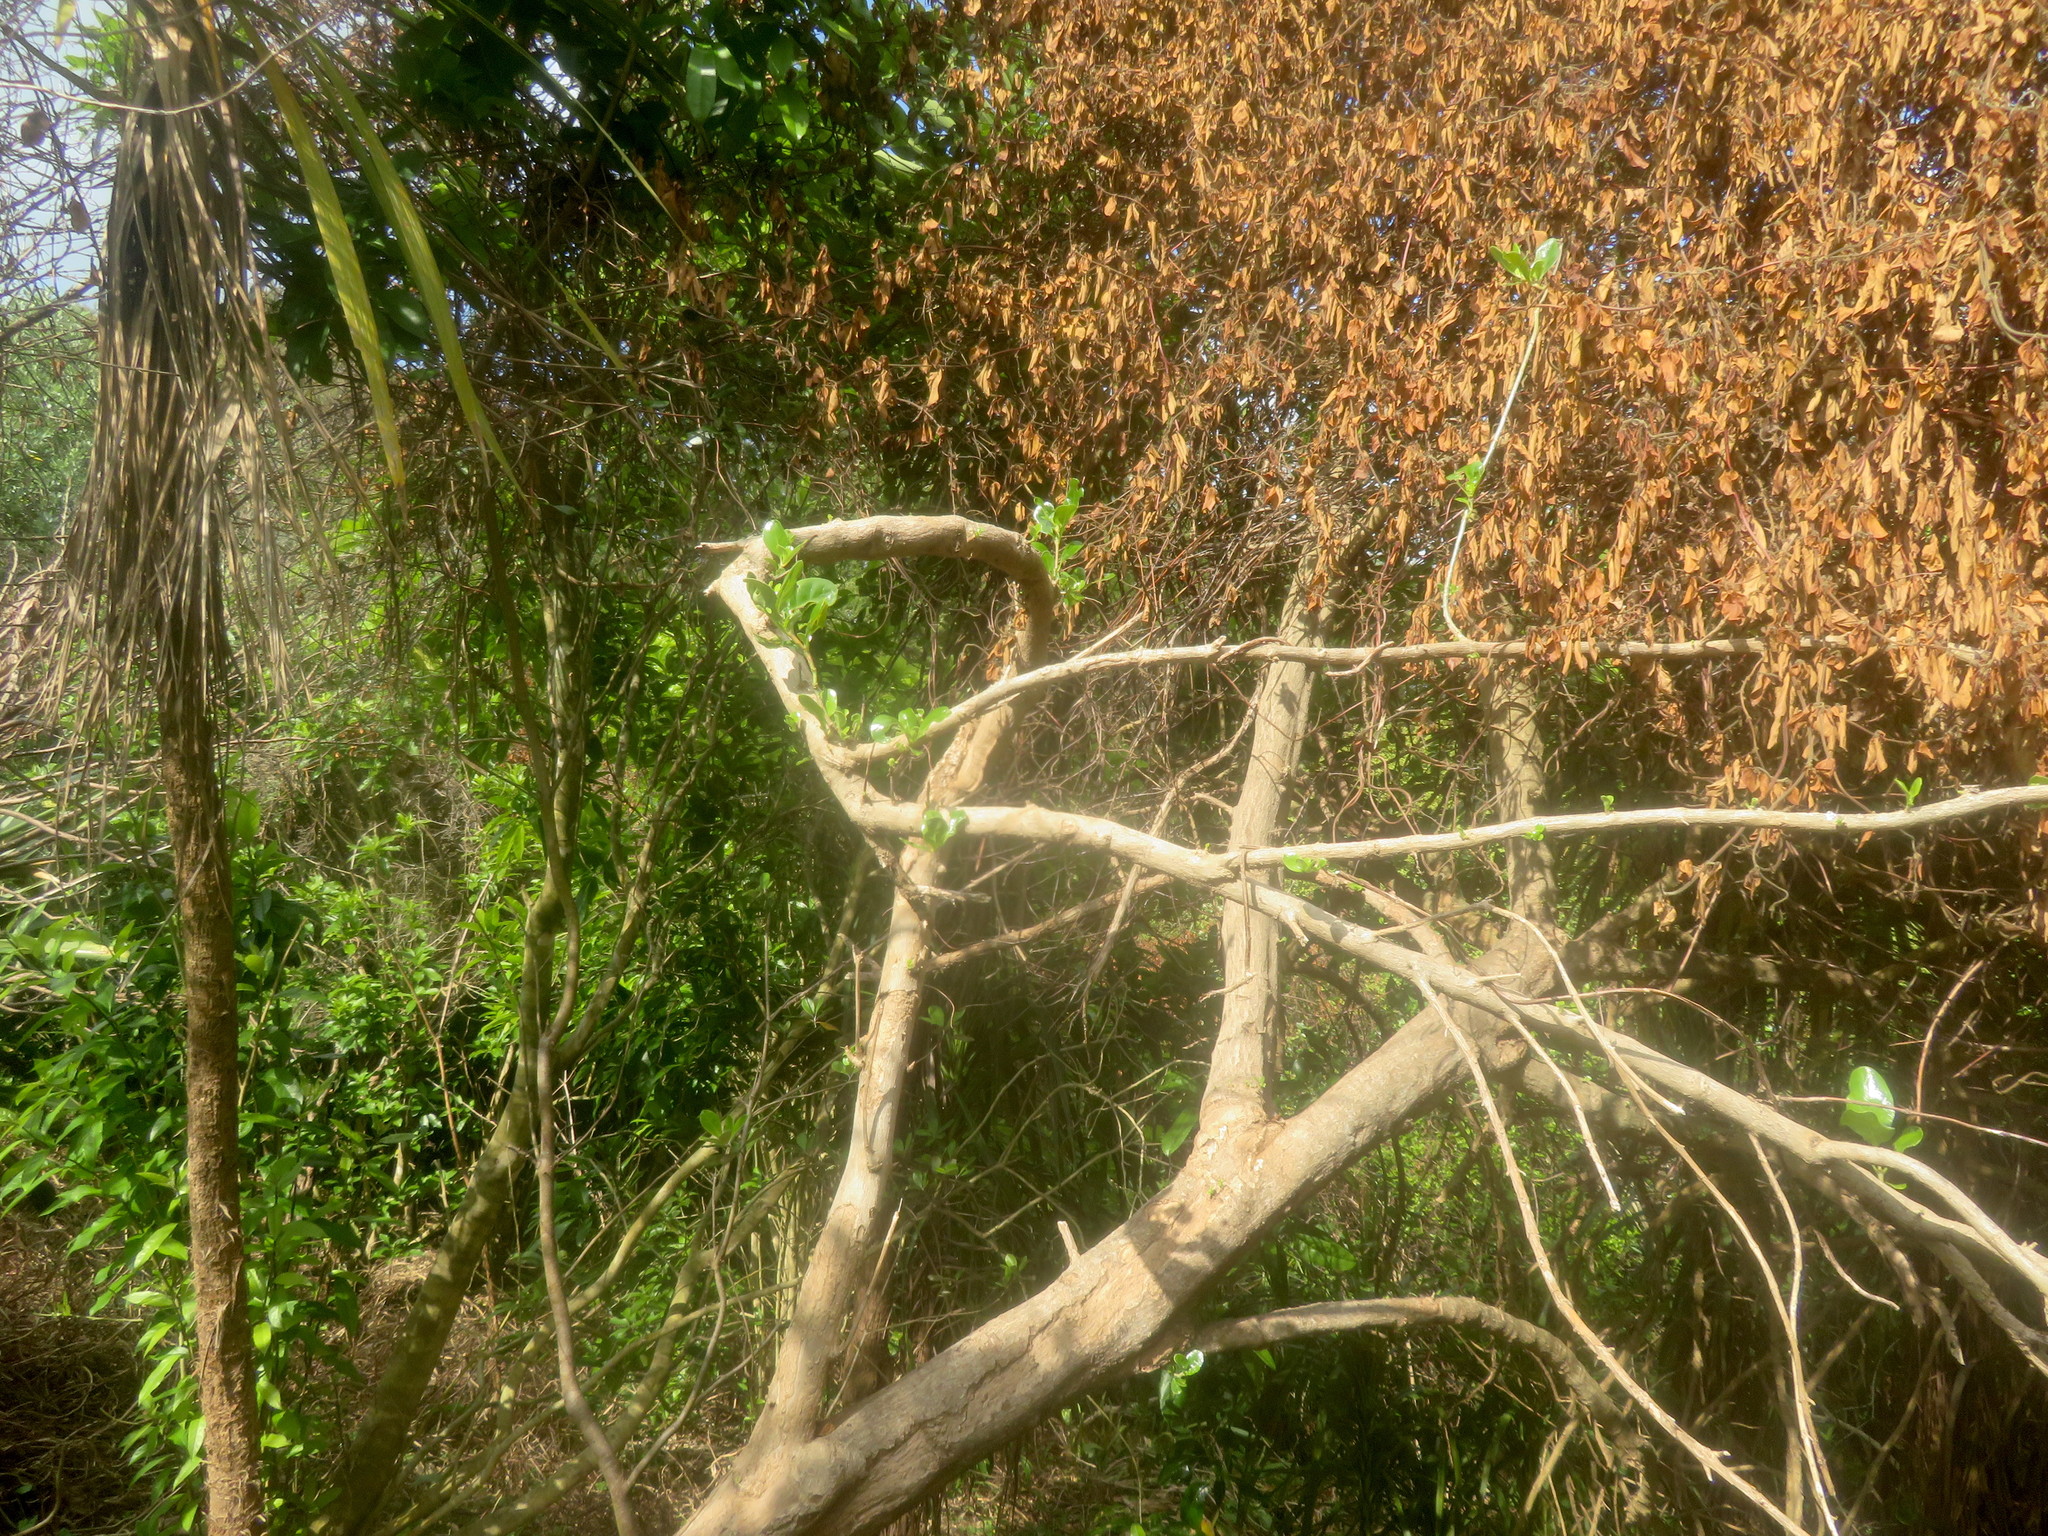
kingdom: Plantae
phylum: Tracheophyta
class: Magnoliopsida
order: Gentianales
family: Rubiaceae
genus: Coprosma
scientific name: Coprosma repens
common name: Tree bedstraw
